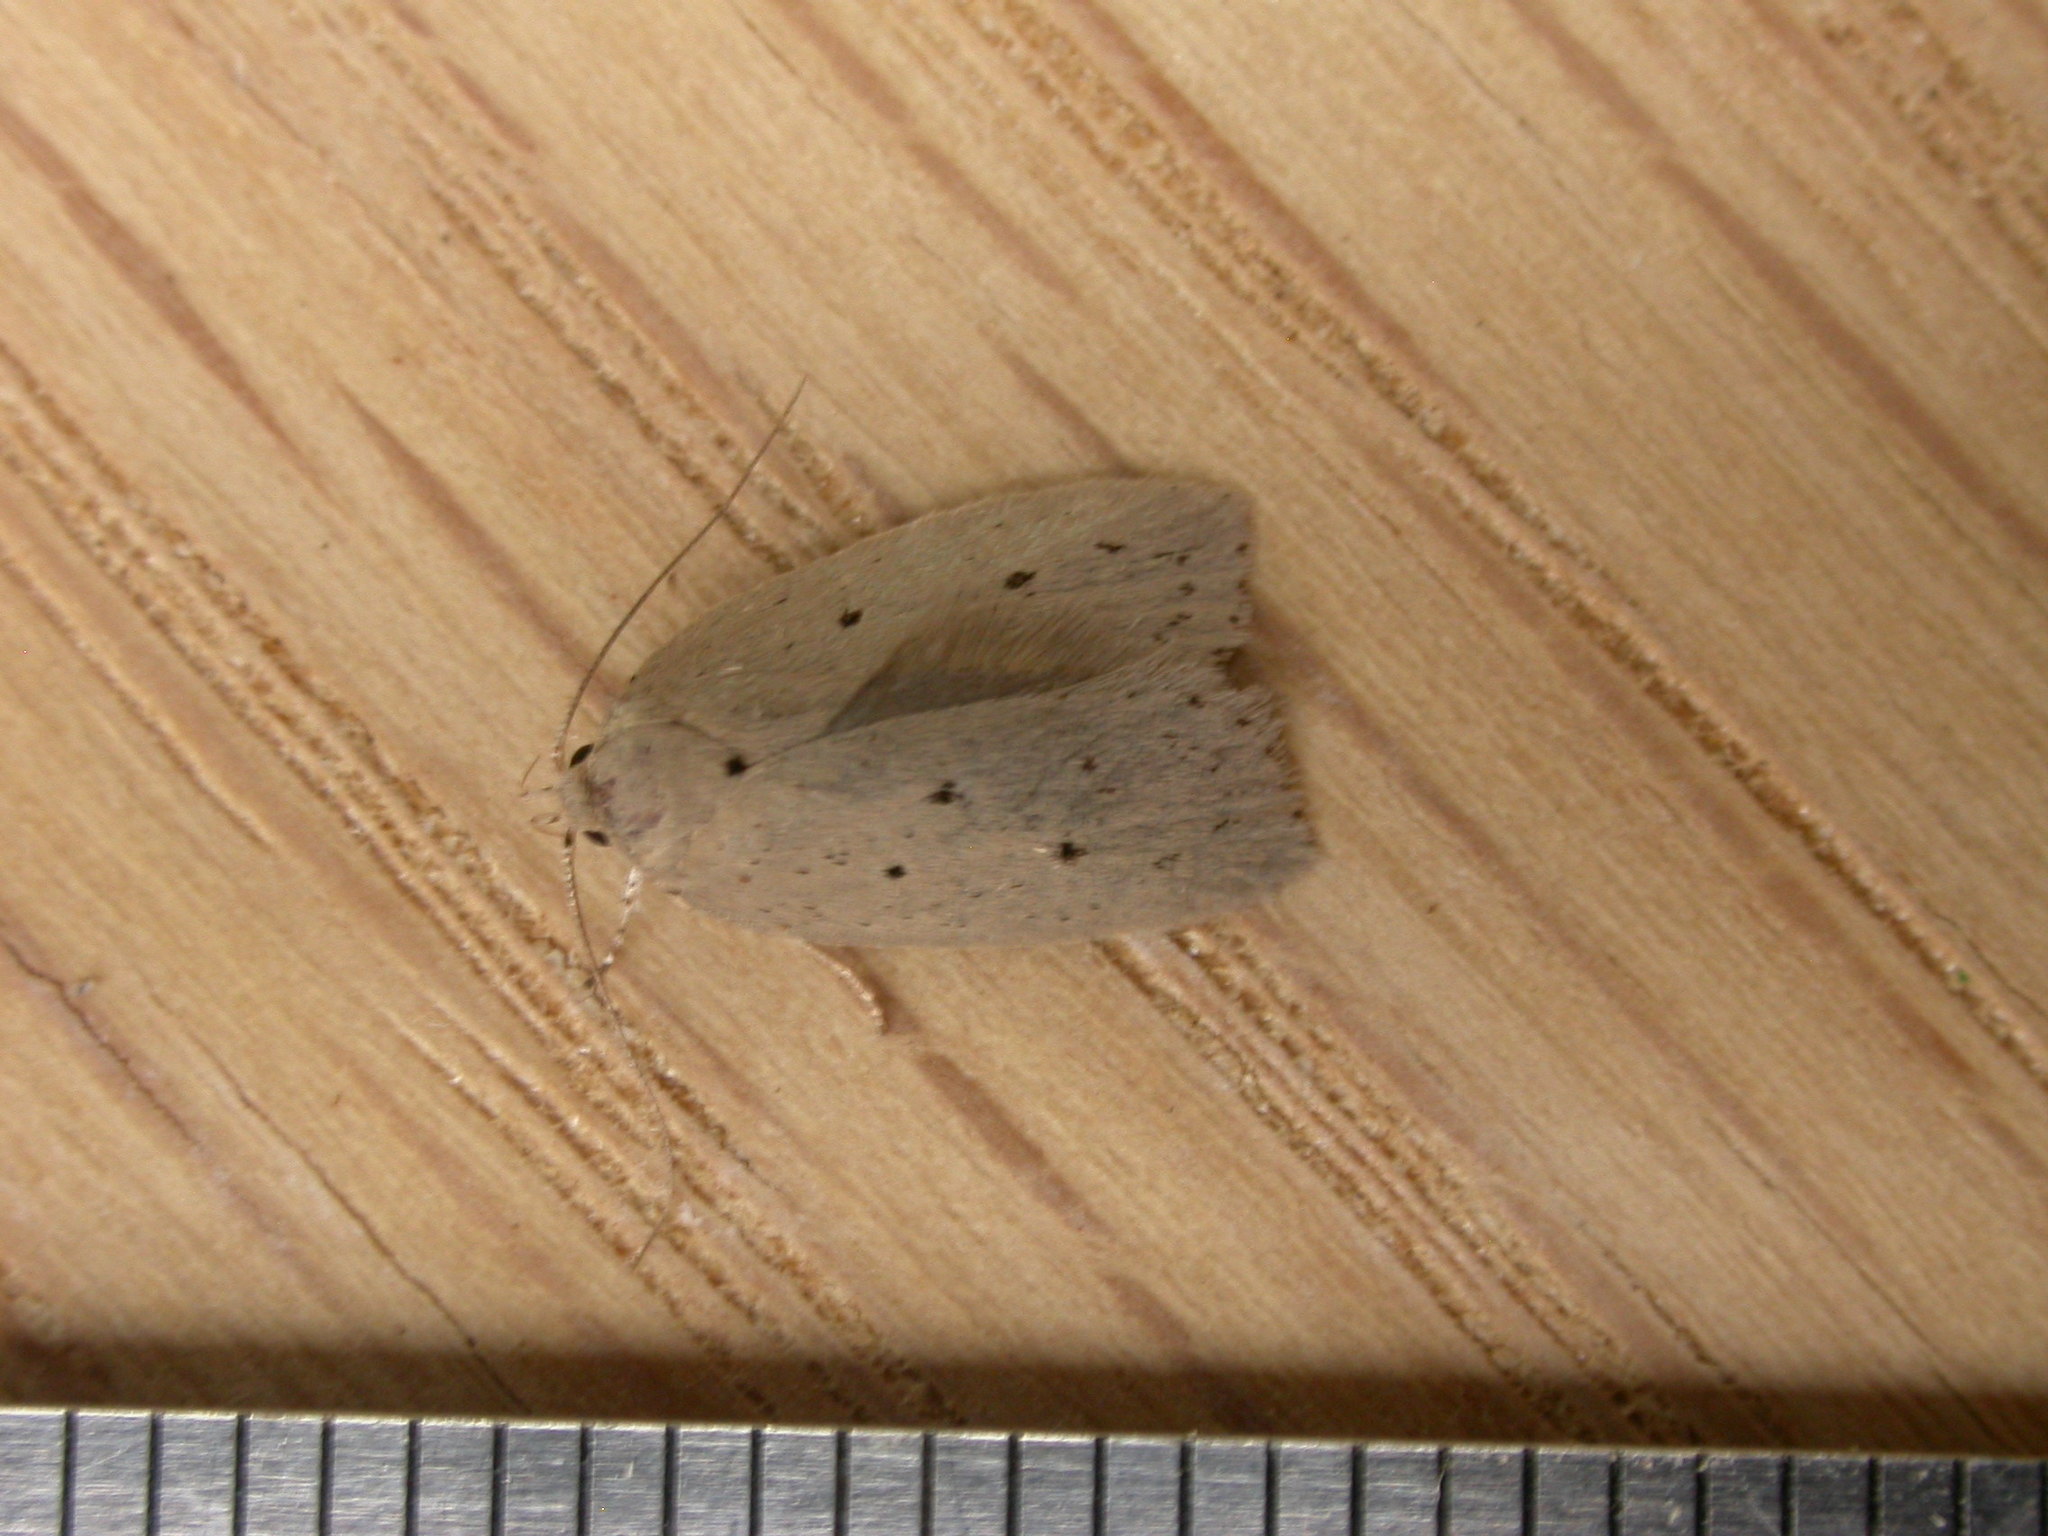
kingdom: Animalia
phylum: Arthropoda
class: Insecta
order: Lepidoptera
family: Oecophoridae
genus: Ironopolia
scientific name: Ironopolia sobriella
